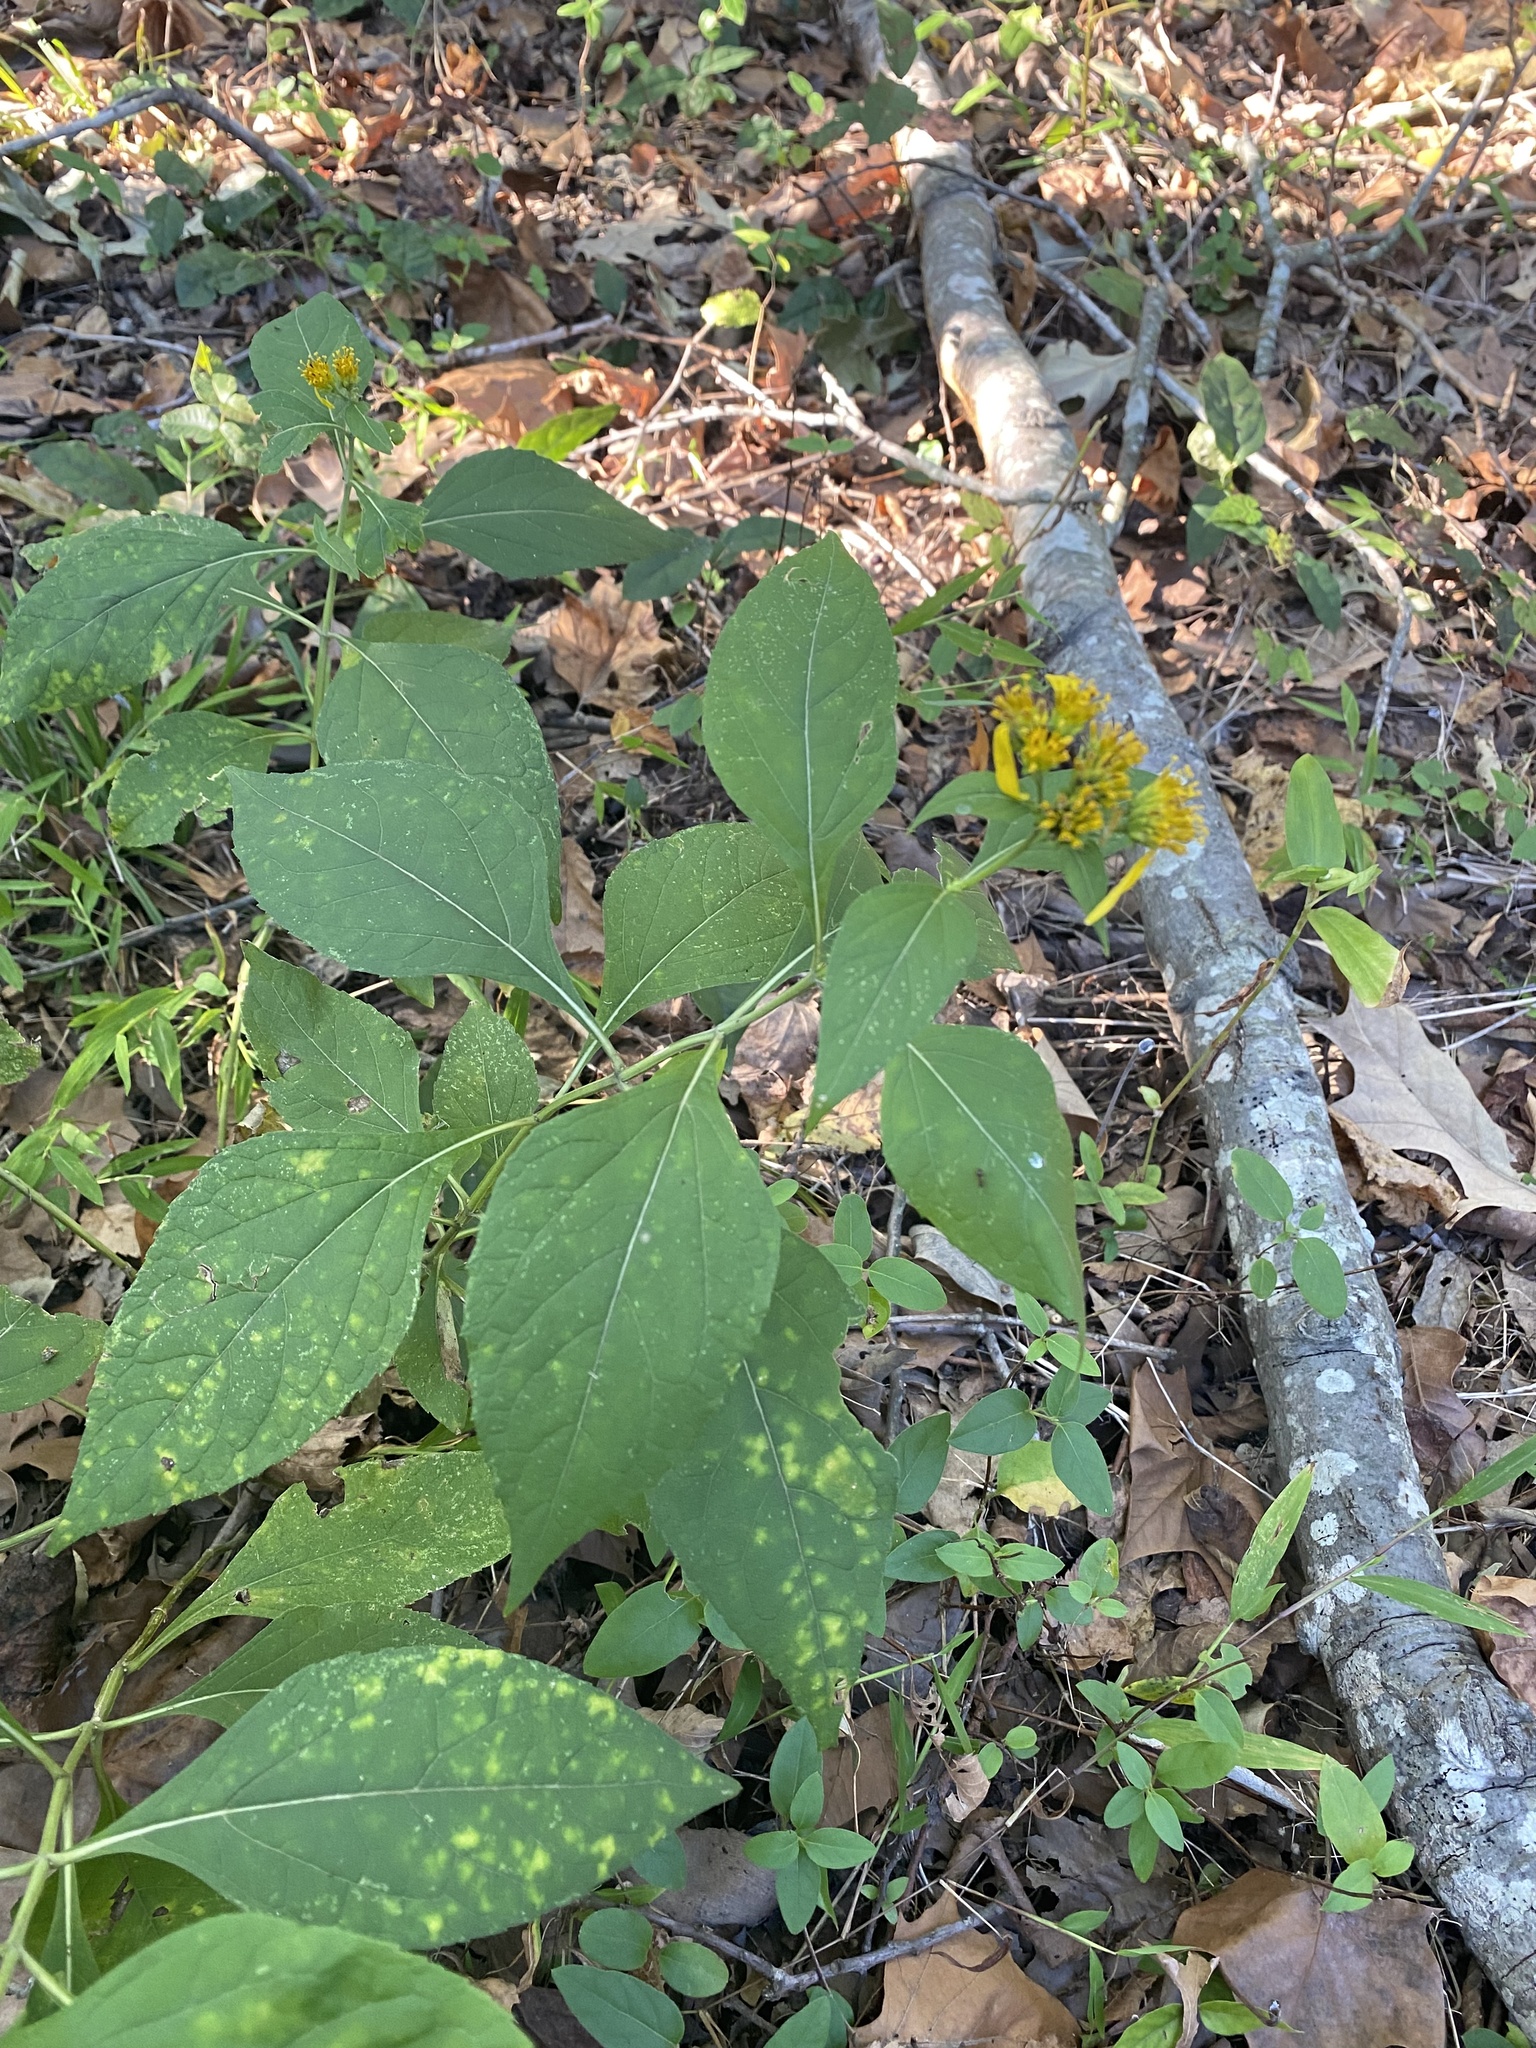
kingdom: Plantae
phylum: Tracheophyta
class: Magnoliopsida
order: Asterales
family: Asteraceae
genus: Verbesina
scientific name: Verbesina occidentalis
